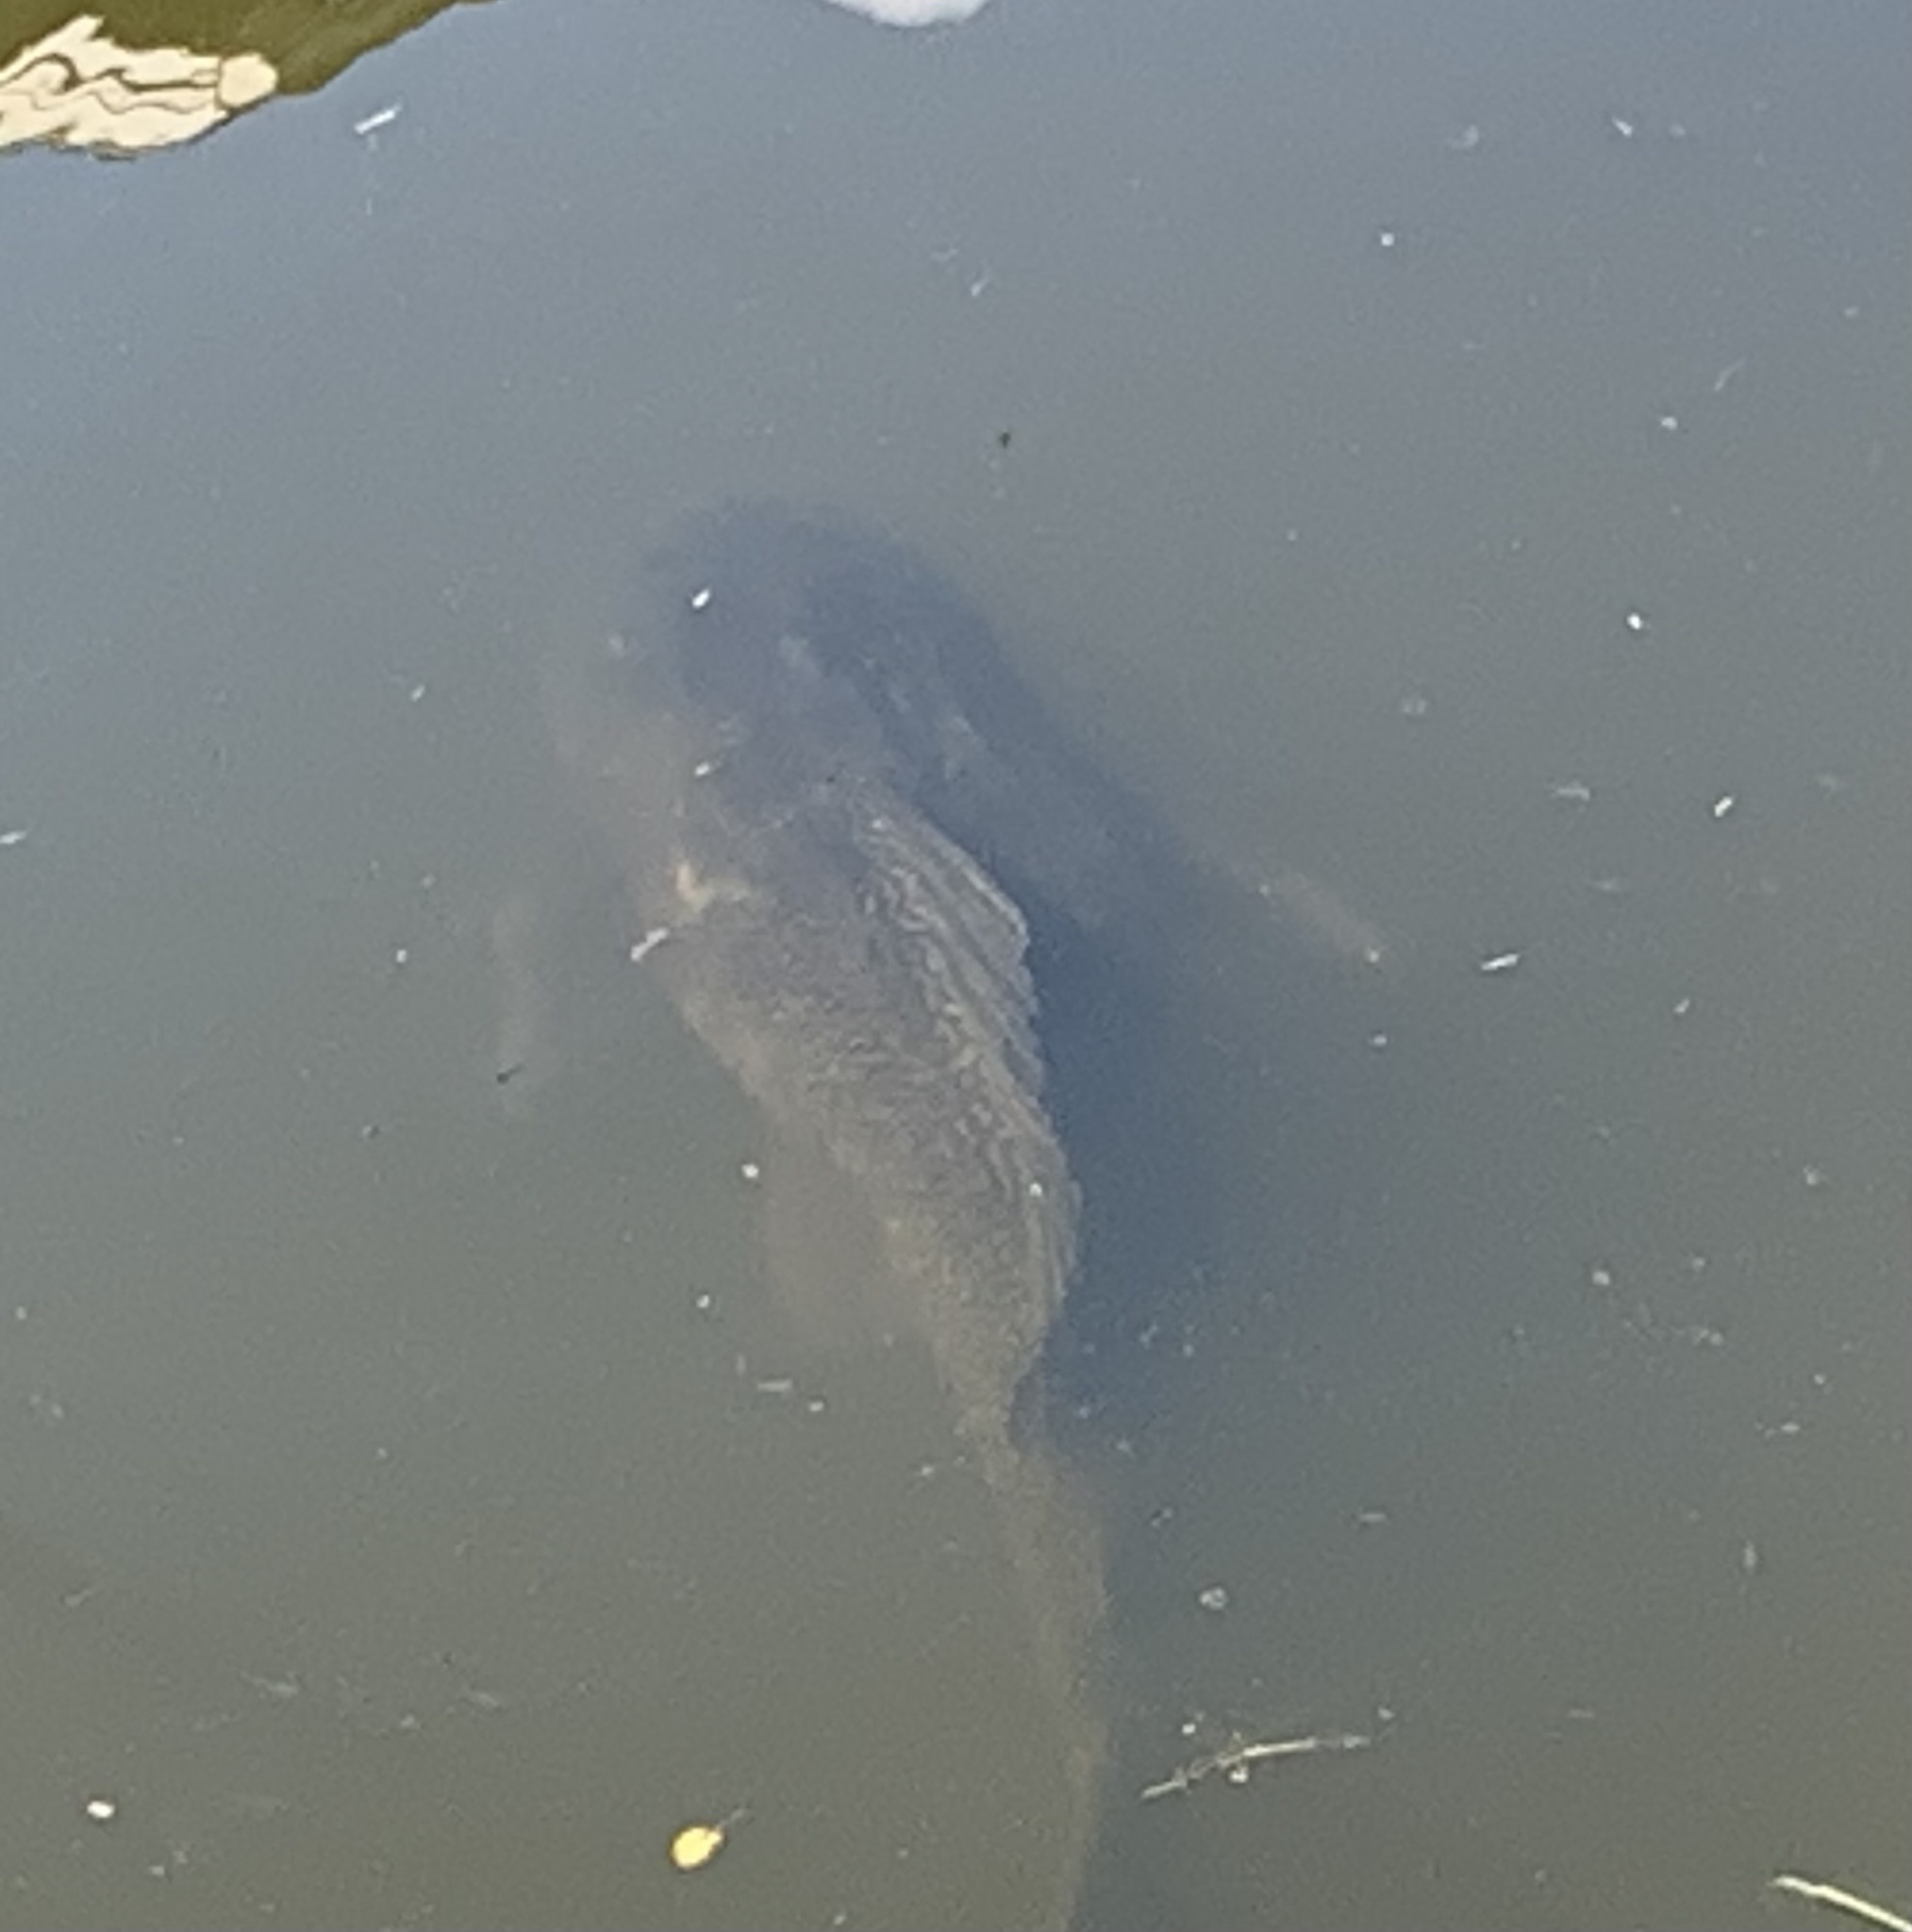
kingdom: Animalia
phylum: Chordata
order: Siluriformes
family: Loricariidae
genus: Pterygoplichthys
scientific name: Pterygoplichthys
